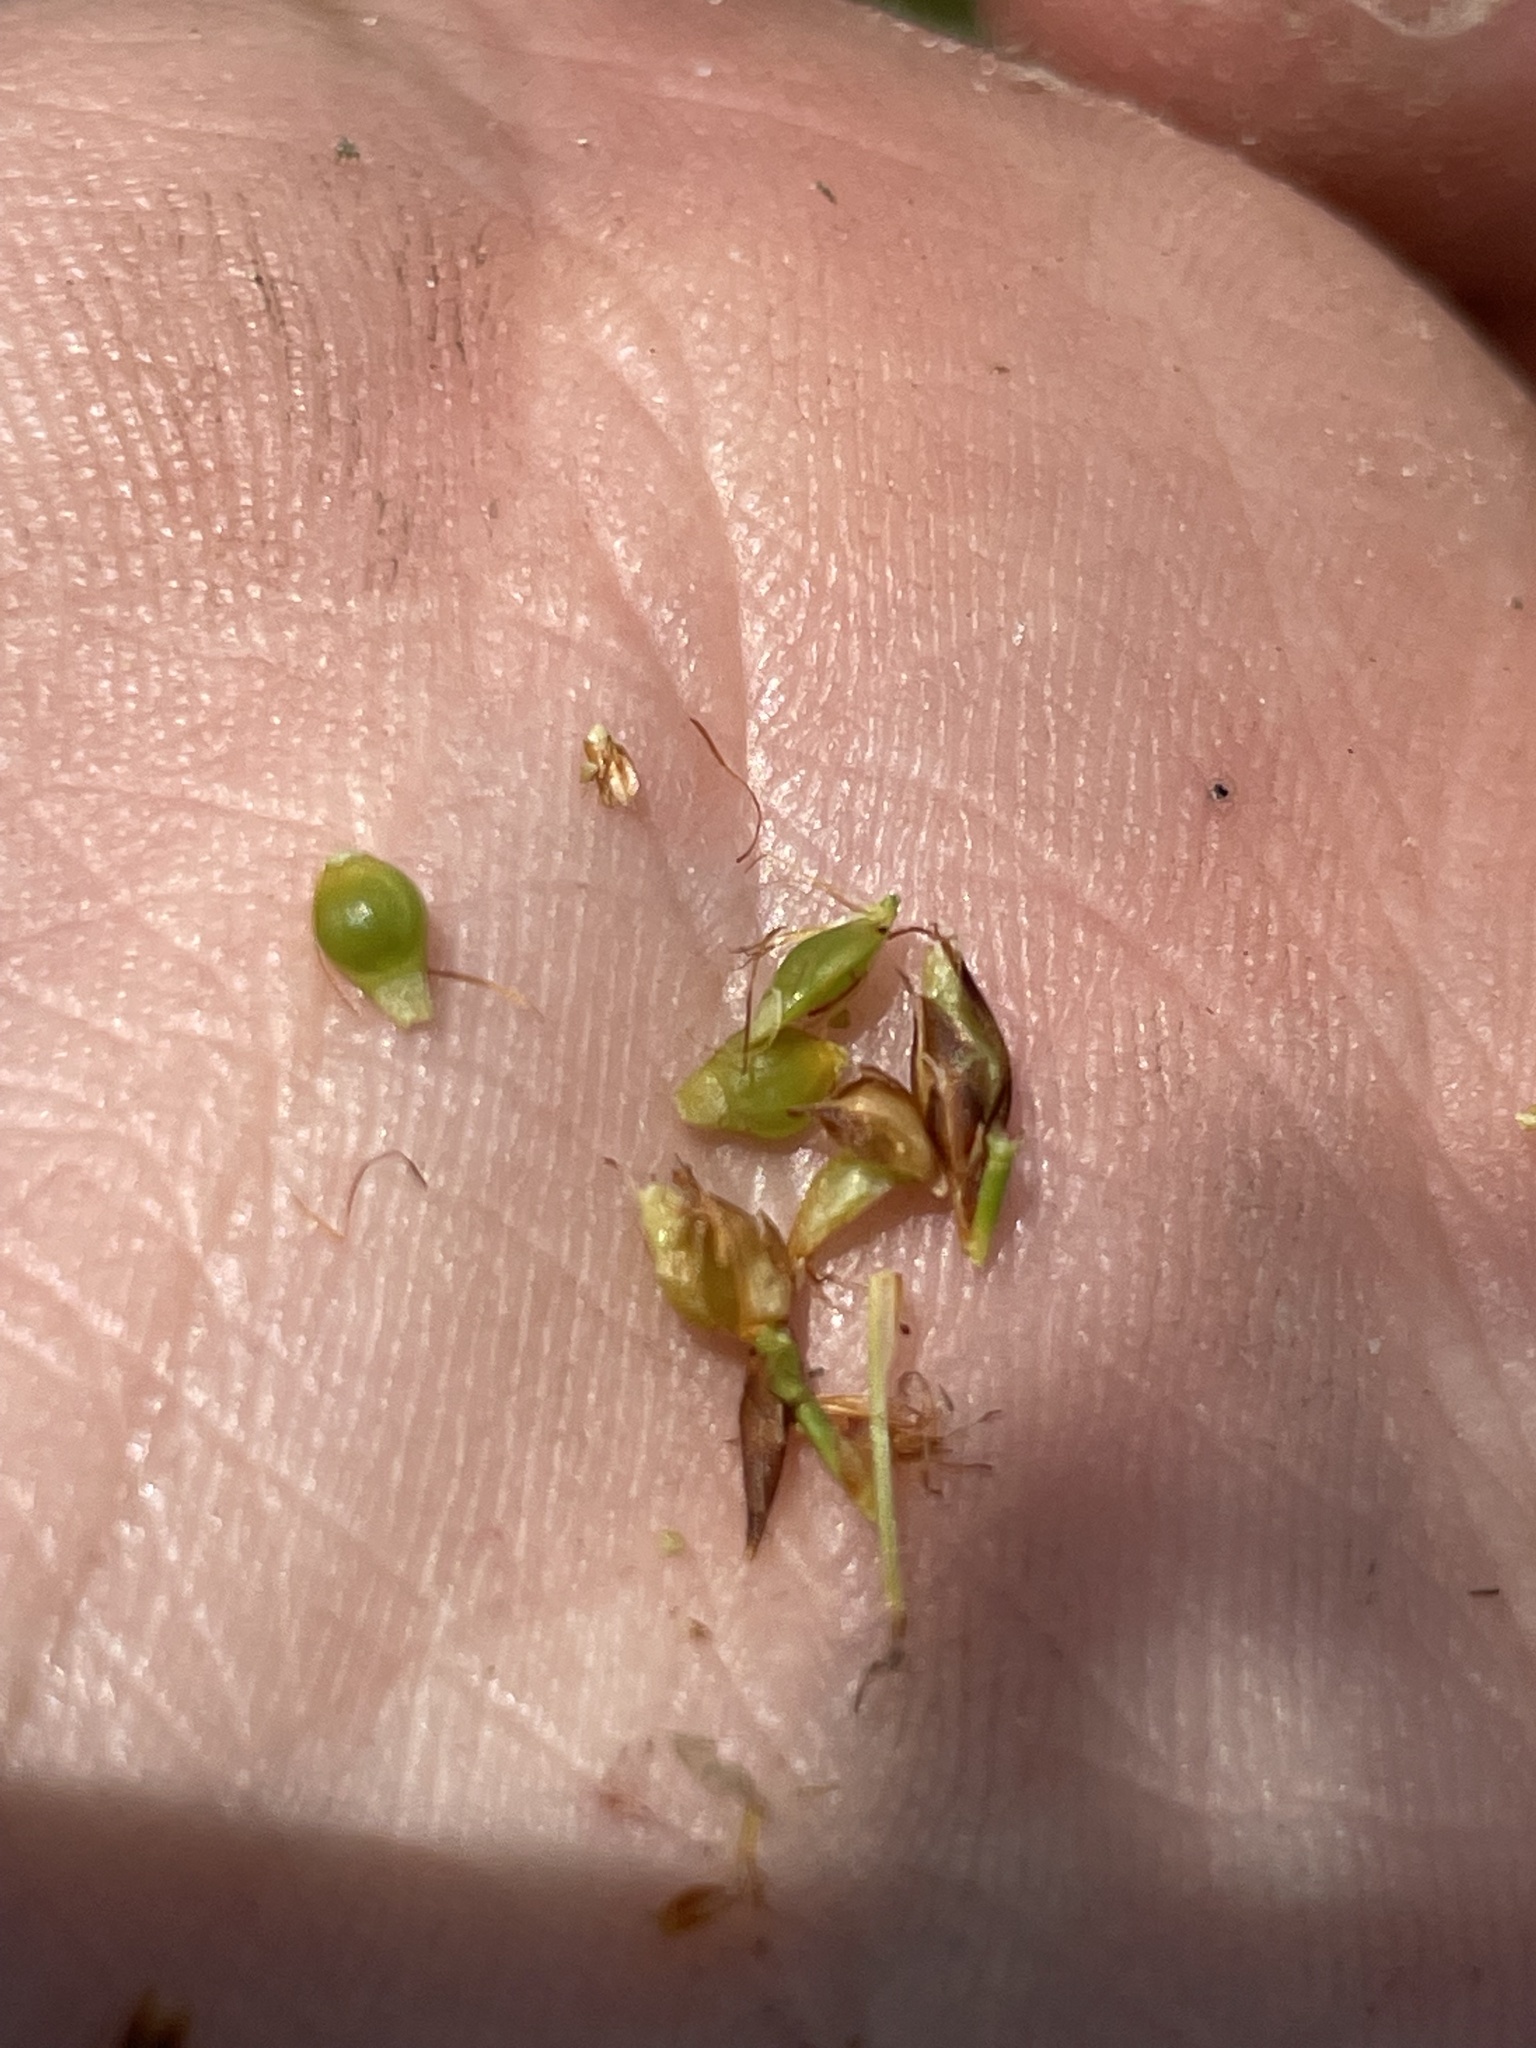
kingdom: Plantae
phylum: Tracheophyta
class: Liliopsida
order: Poales
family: Cyperaceae
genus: Rhynchospora
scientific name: Rhynchospora fascicularis
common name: Fascicled beak sedge
